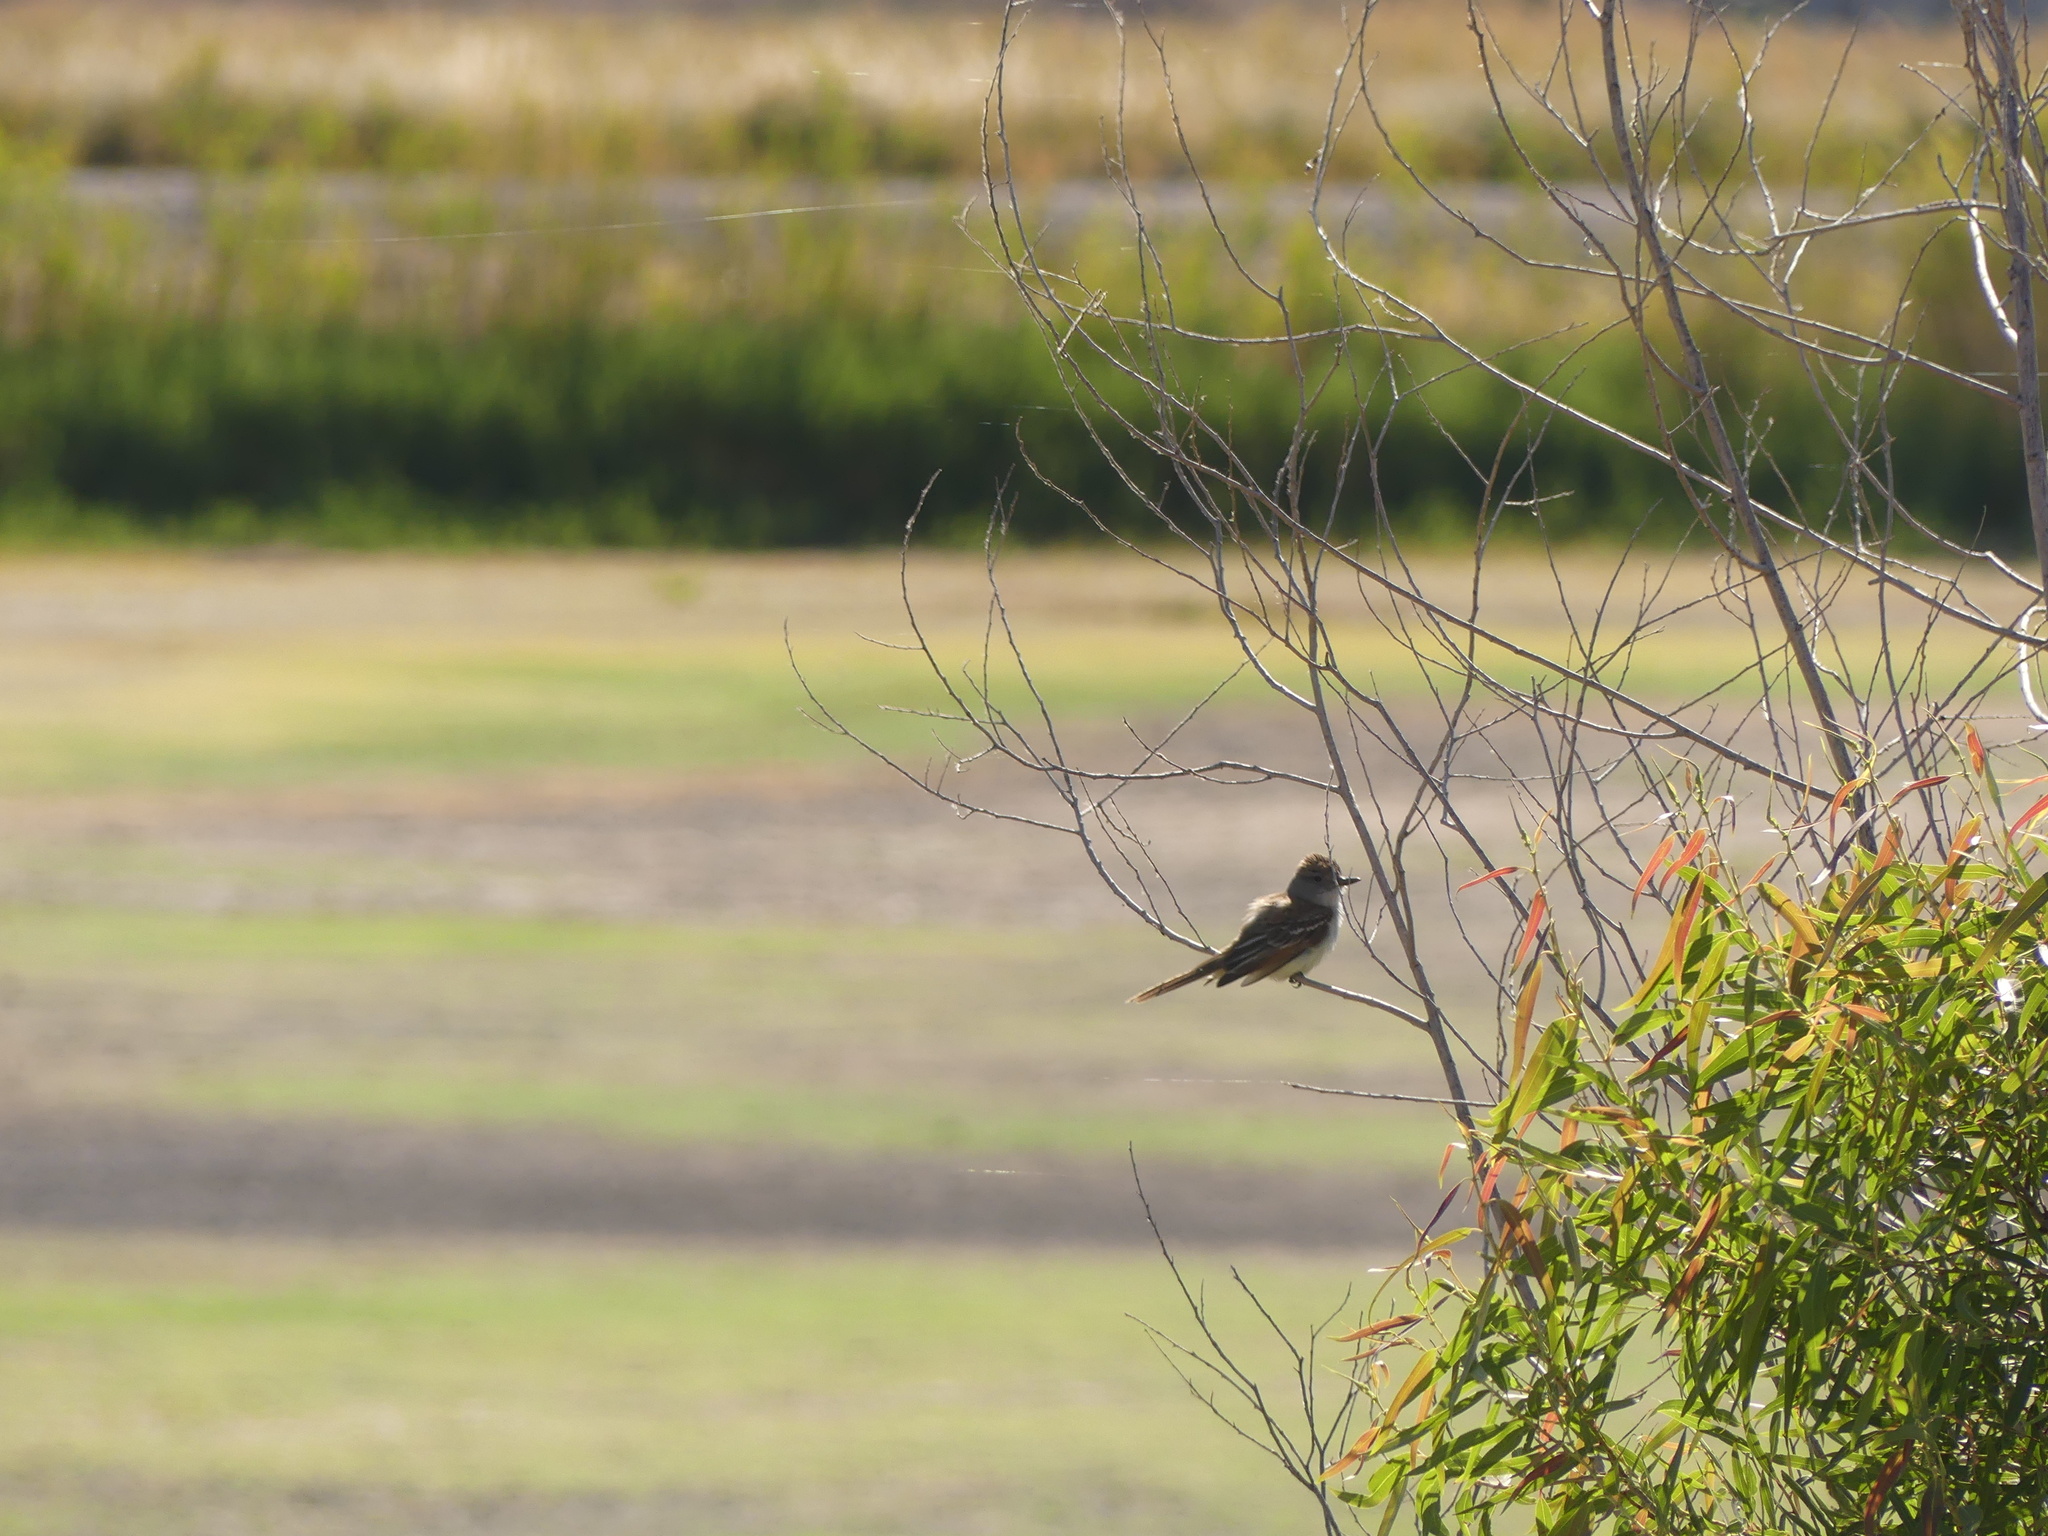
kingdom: Animalia
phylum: Chordata
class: Aves
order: Passeriformes
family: Tyrannidae
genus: Myiarchus
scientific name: Myiarchus cinerascens
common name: Ash-throated flycatcher
